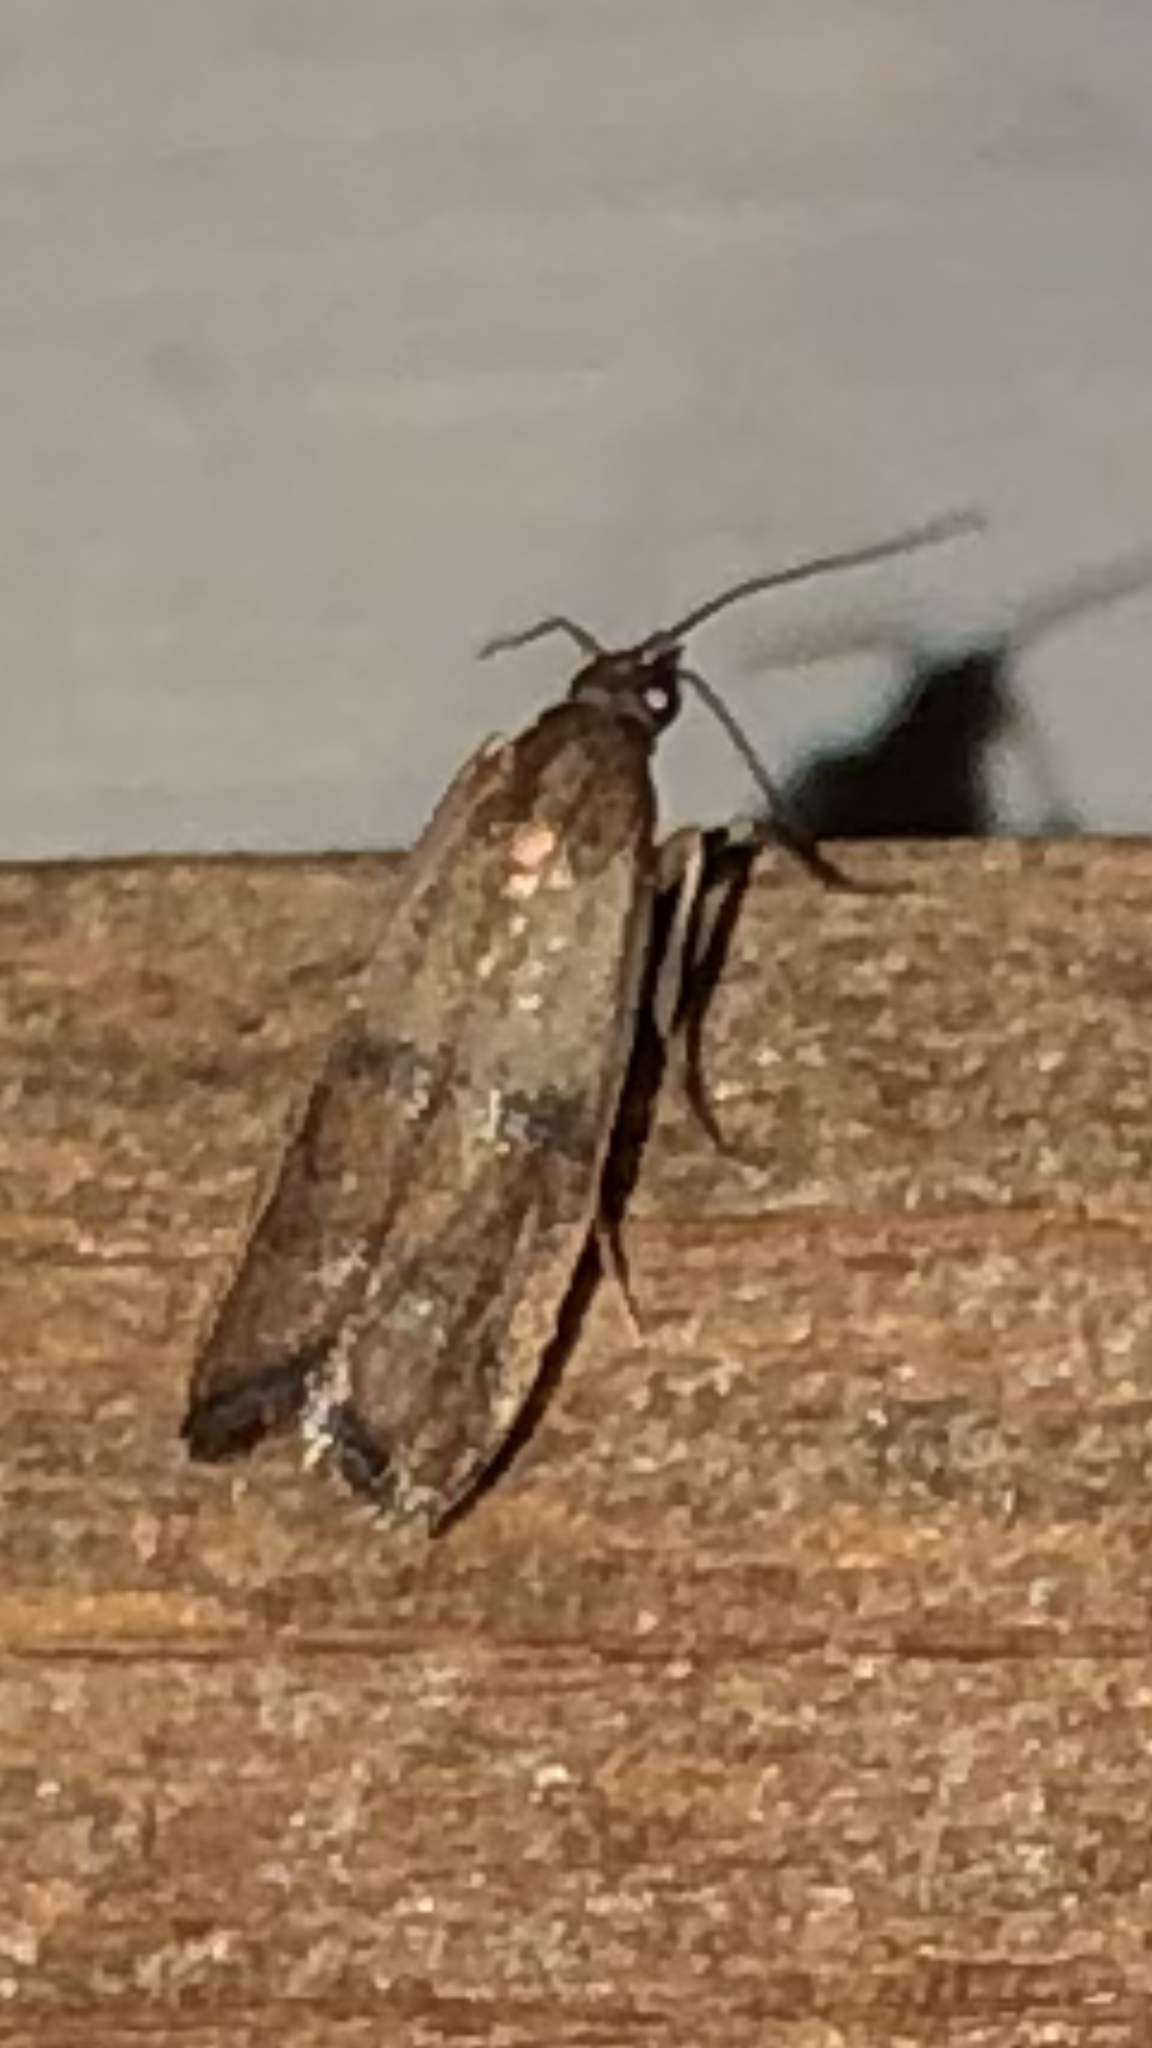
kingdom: Animalia
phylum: Arthropoda
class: Insecta
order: Lepidoptera
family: Pyralidae
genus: Plodia
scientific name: Plodia interpunctella
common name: Indian meal moth
